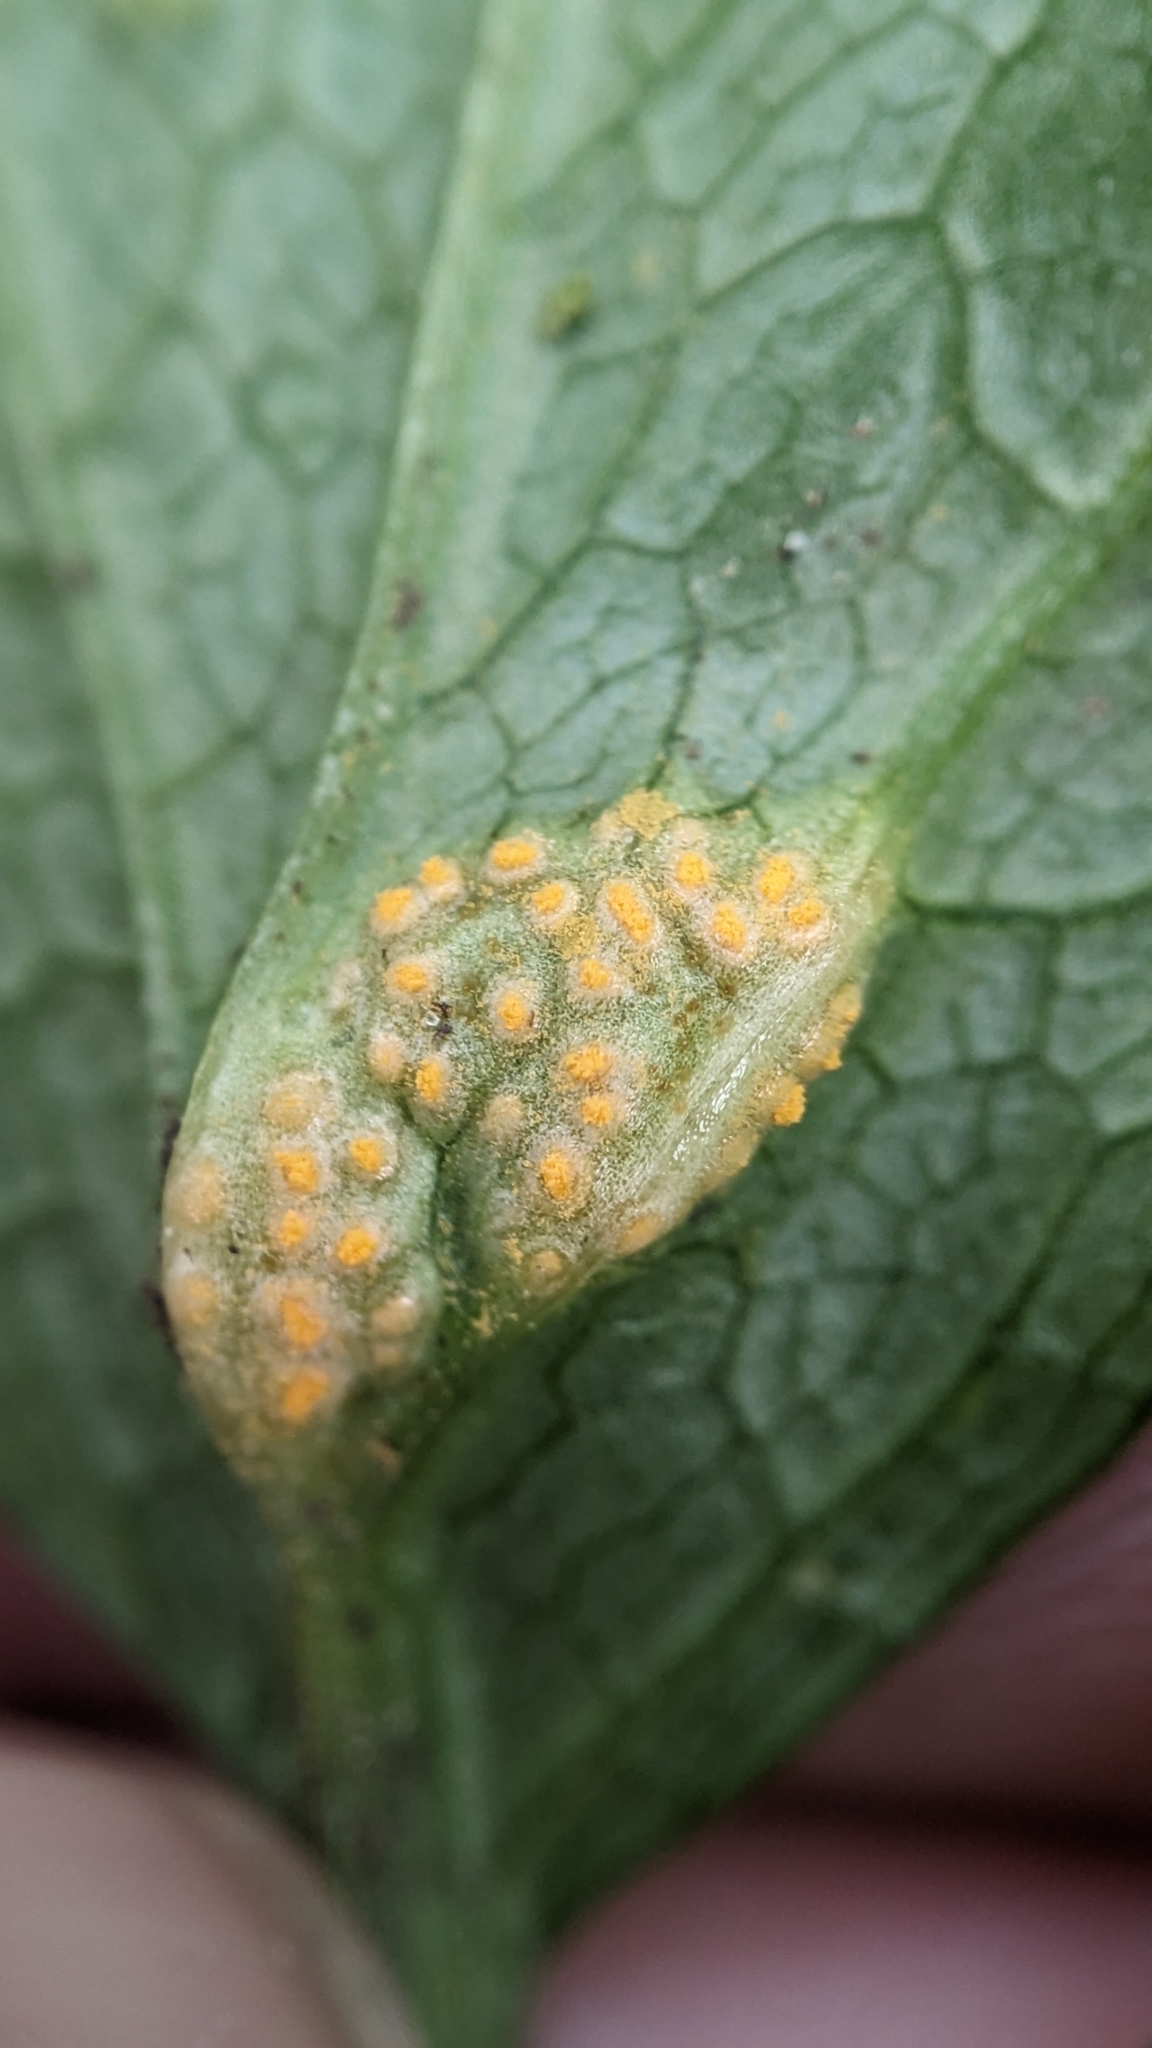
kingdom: Fungi
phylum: Basidiomycota
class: Pucciniomycetes
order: Pucciniales
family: Pucciniaceae
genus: Puccinia
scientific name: Puccinia smyrnii
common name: Alexanders rust
